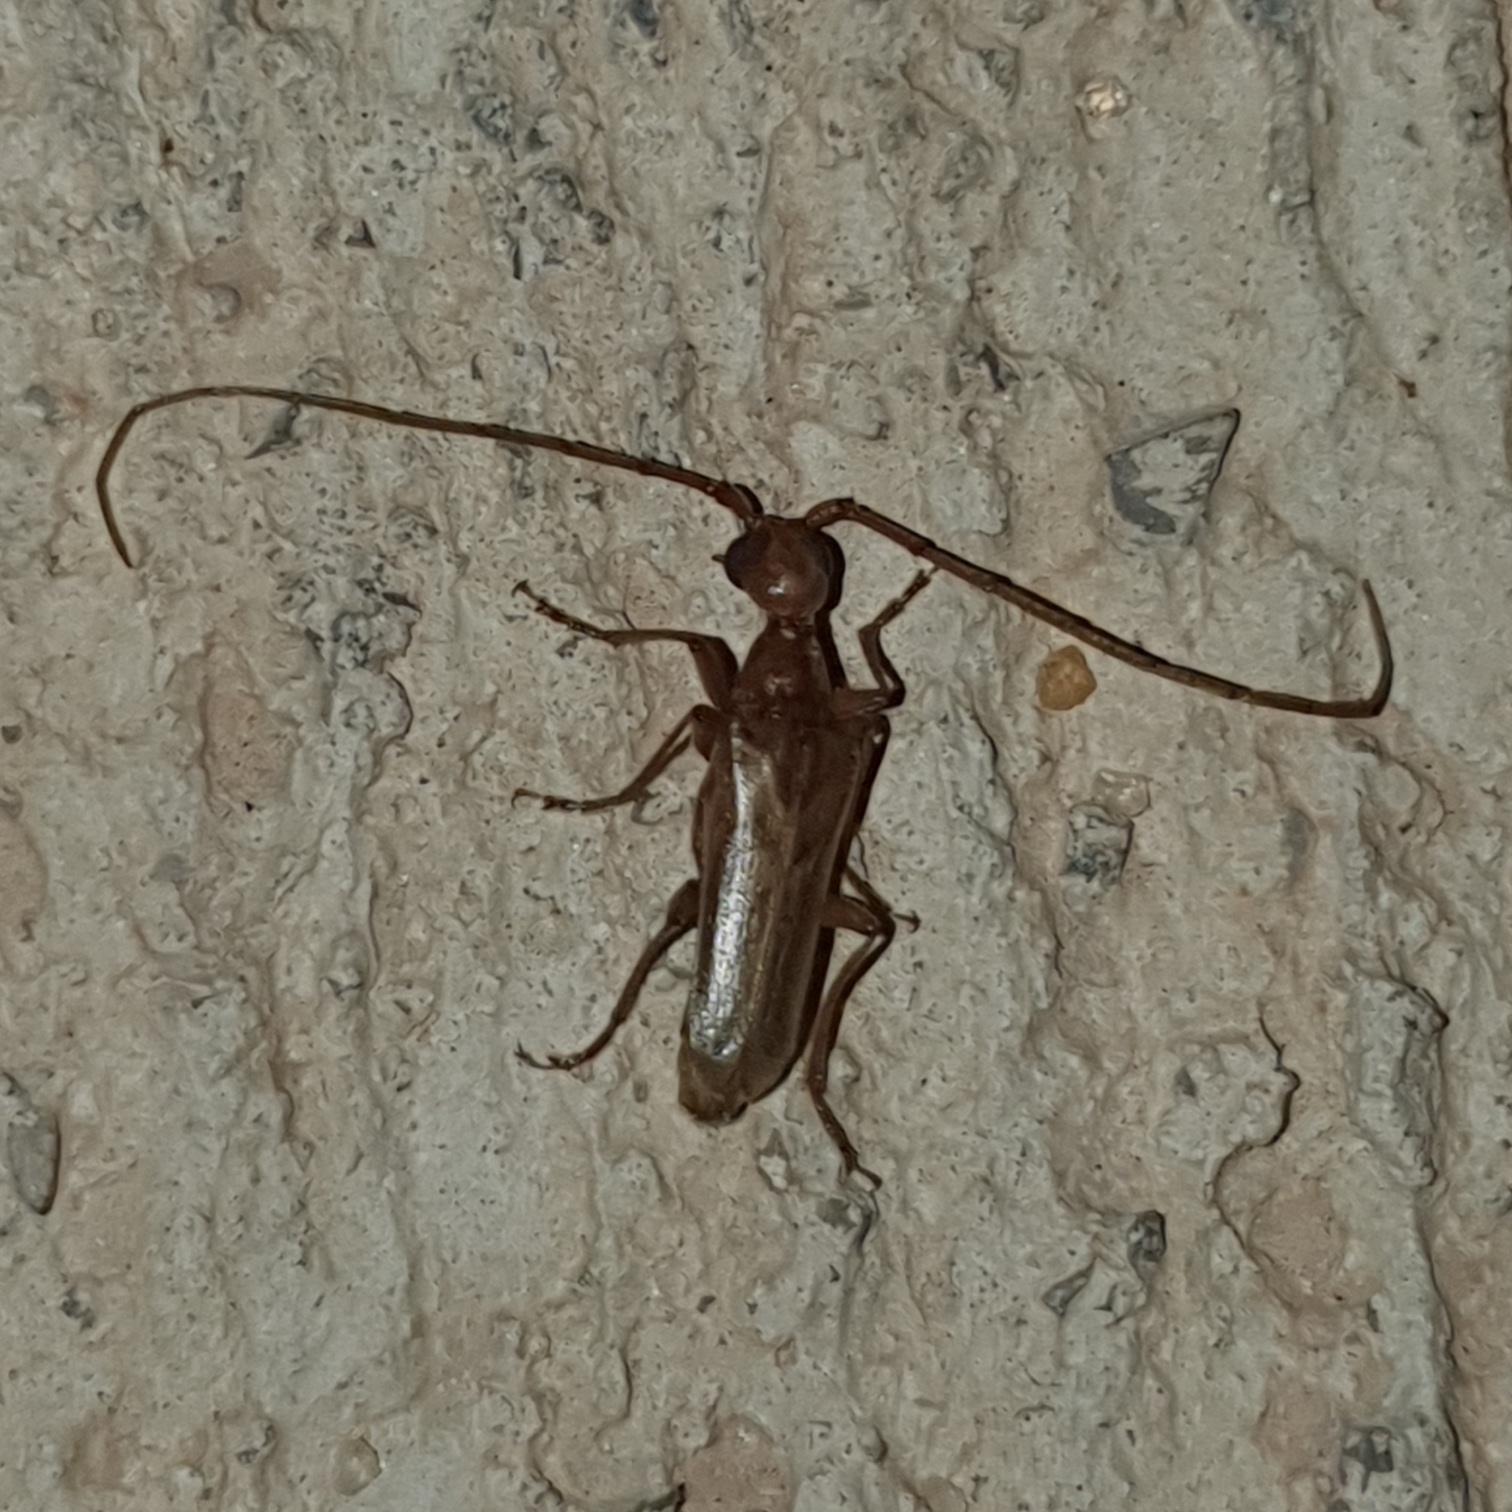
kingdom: Animalia
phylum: Arthropoda
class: Insecta
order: Coleoptera
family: Cerambycidae
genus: Vesperus
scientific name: Vesperus flaveolus
